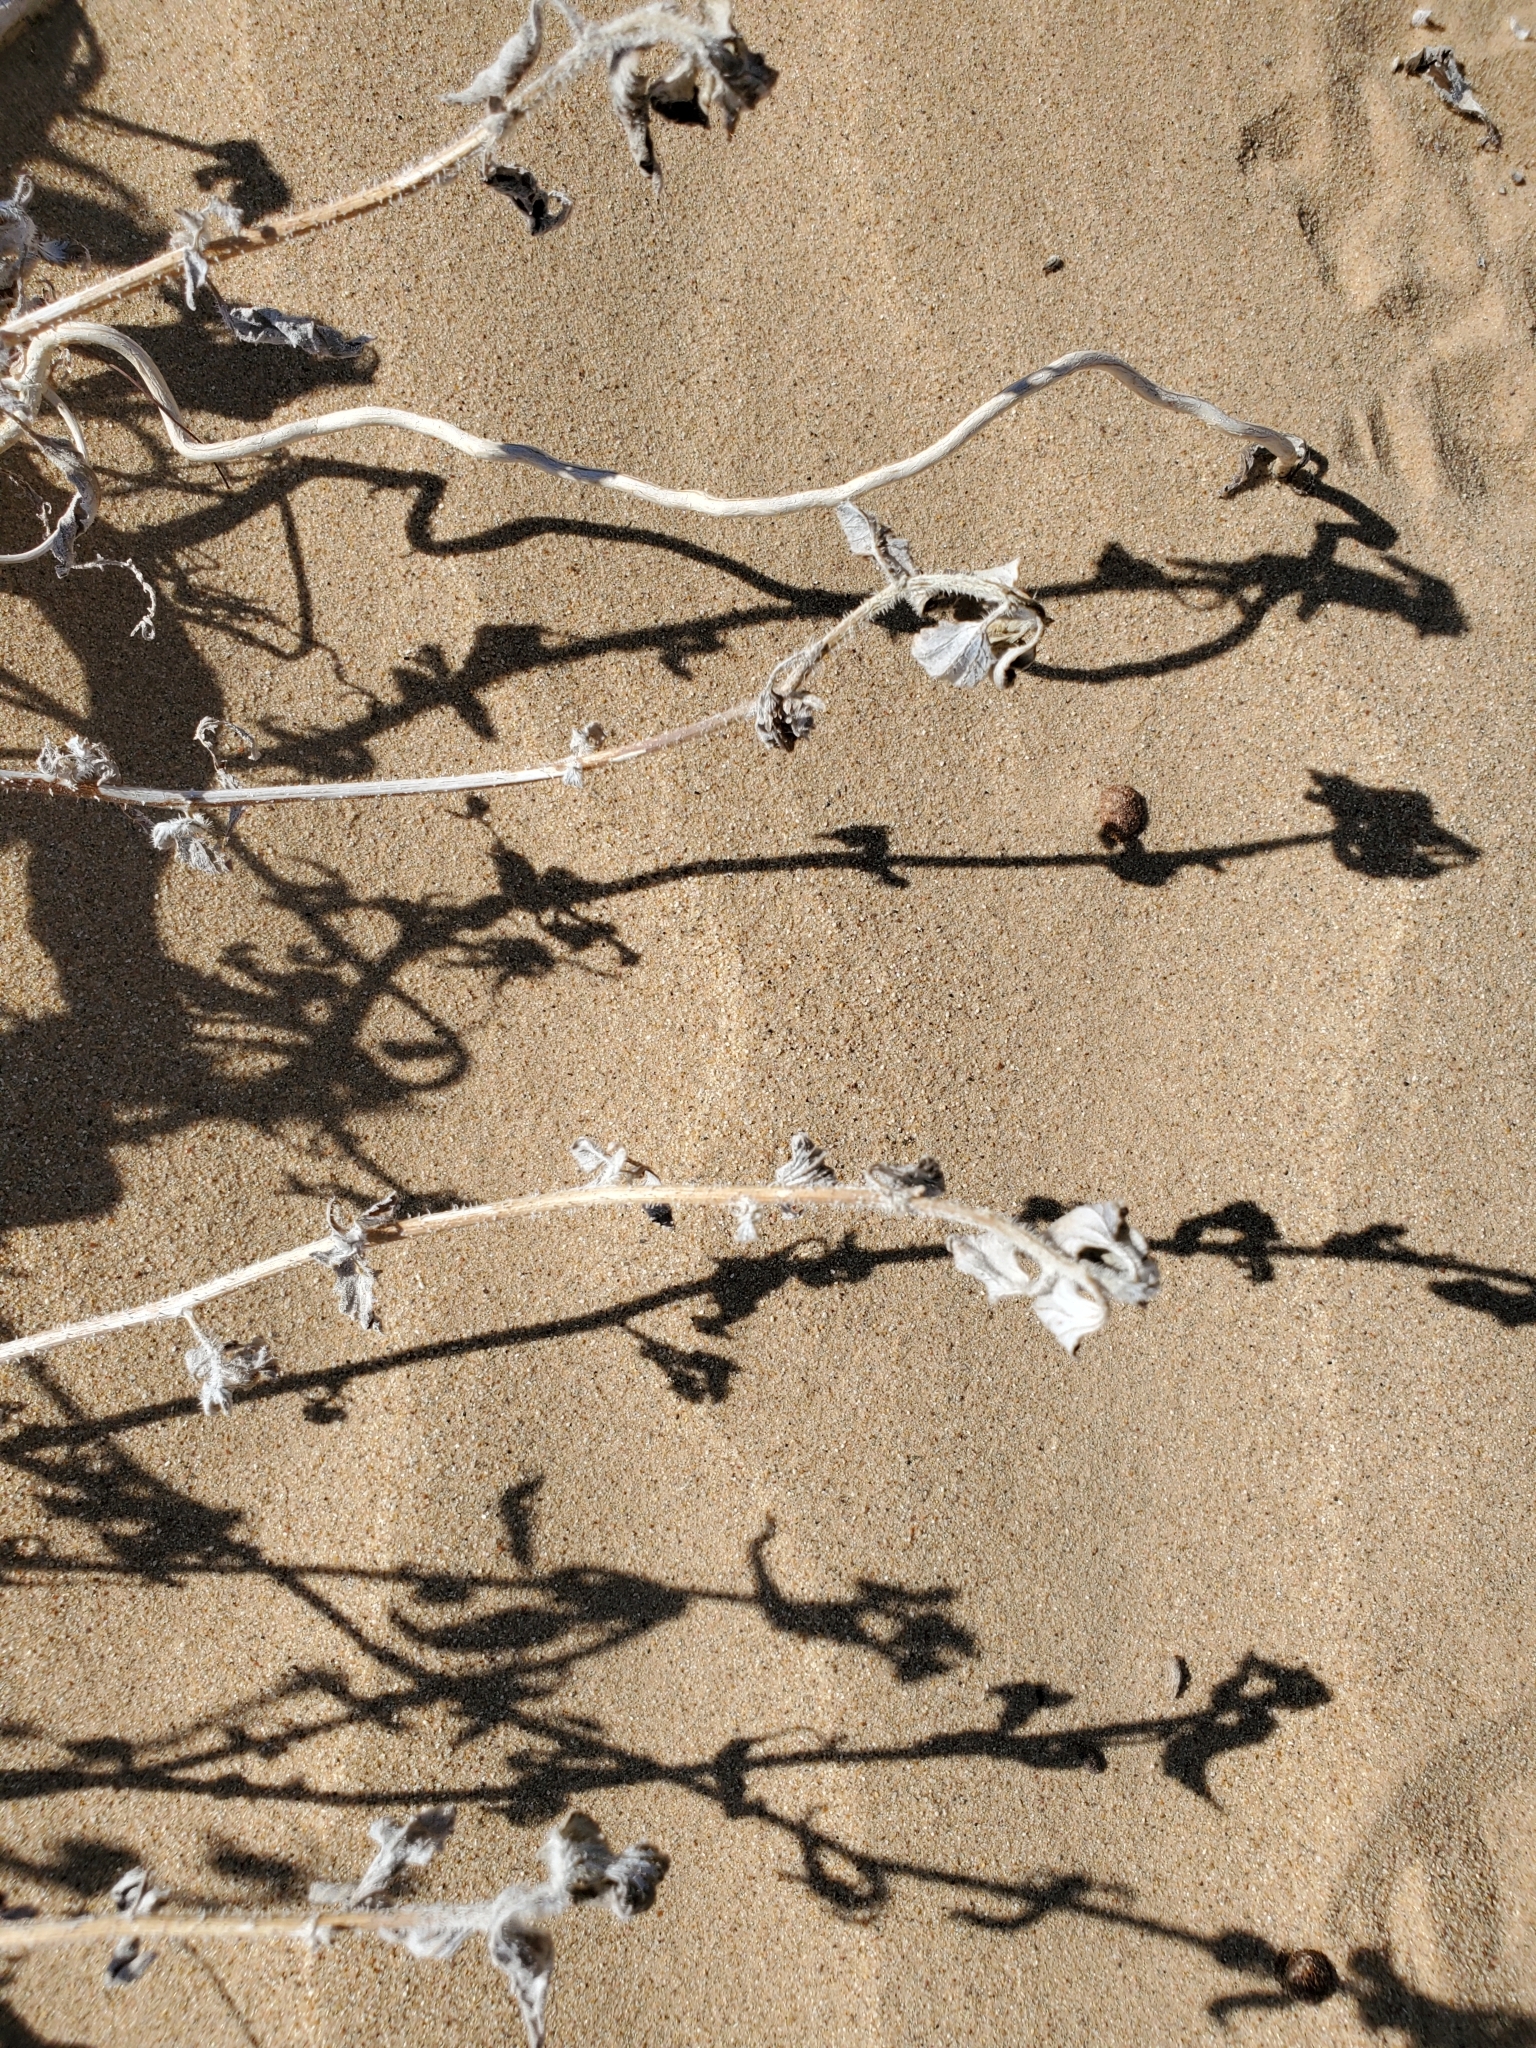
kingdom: Plantae
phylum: Tracheophyta
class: Magnoliopsida
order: Asterales
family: Asteraceae
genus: Dicoria
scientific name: Dicoria canescens
